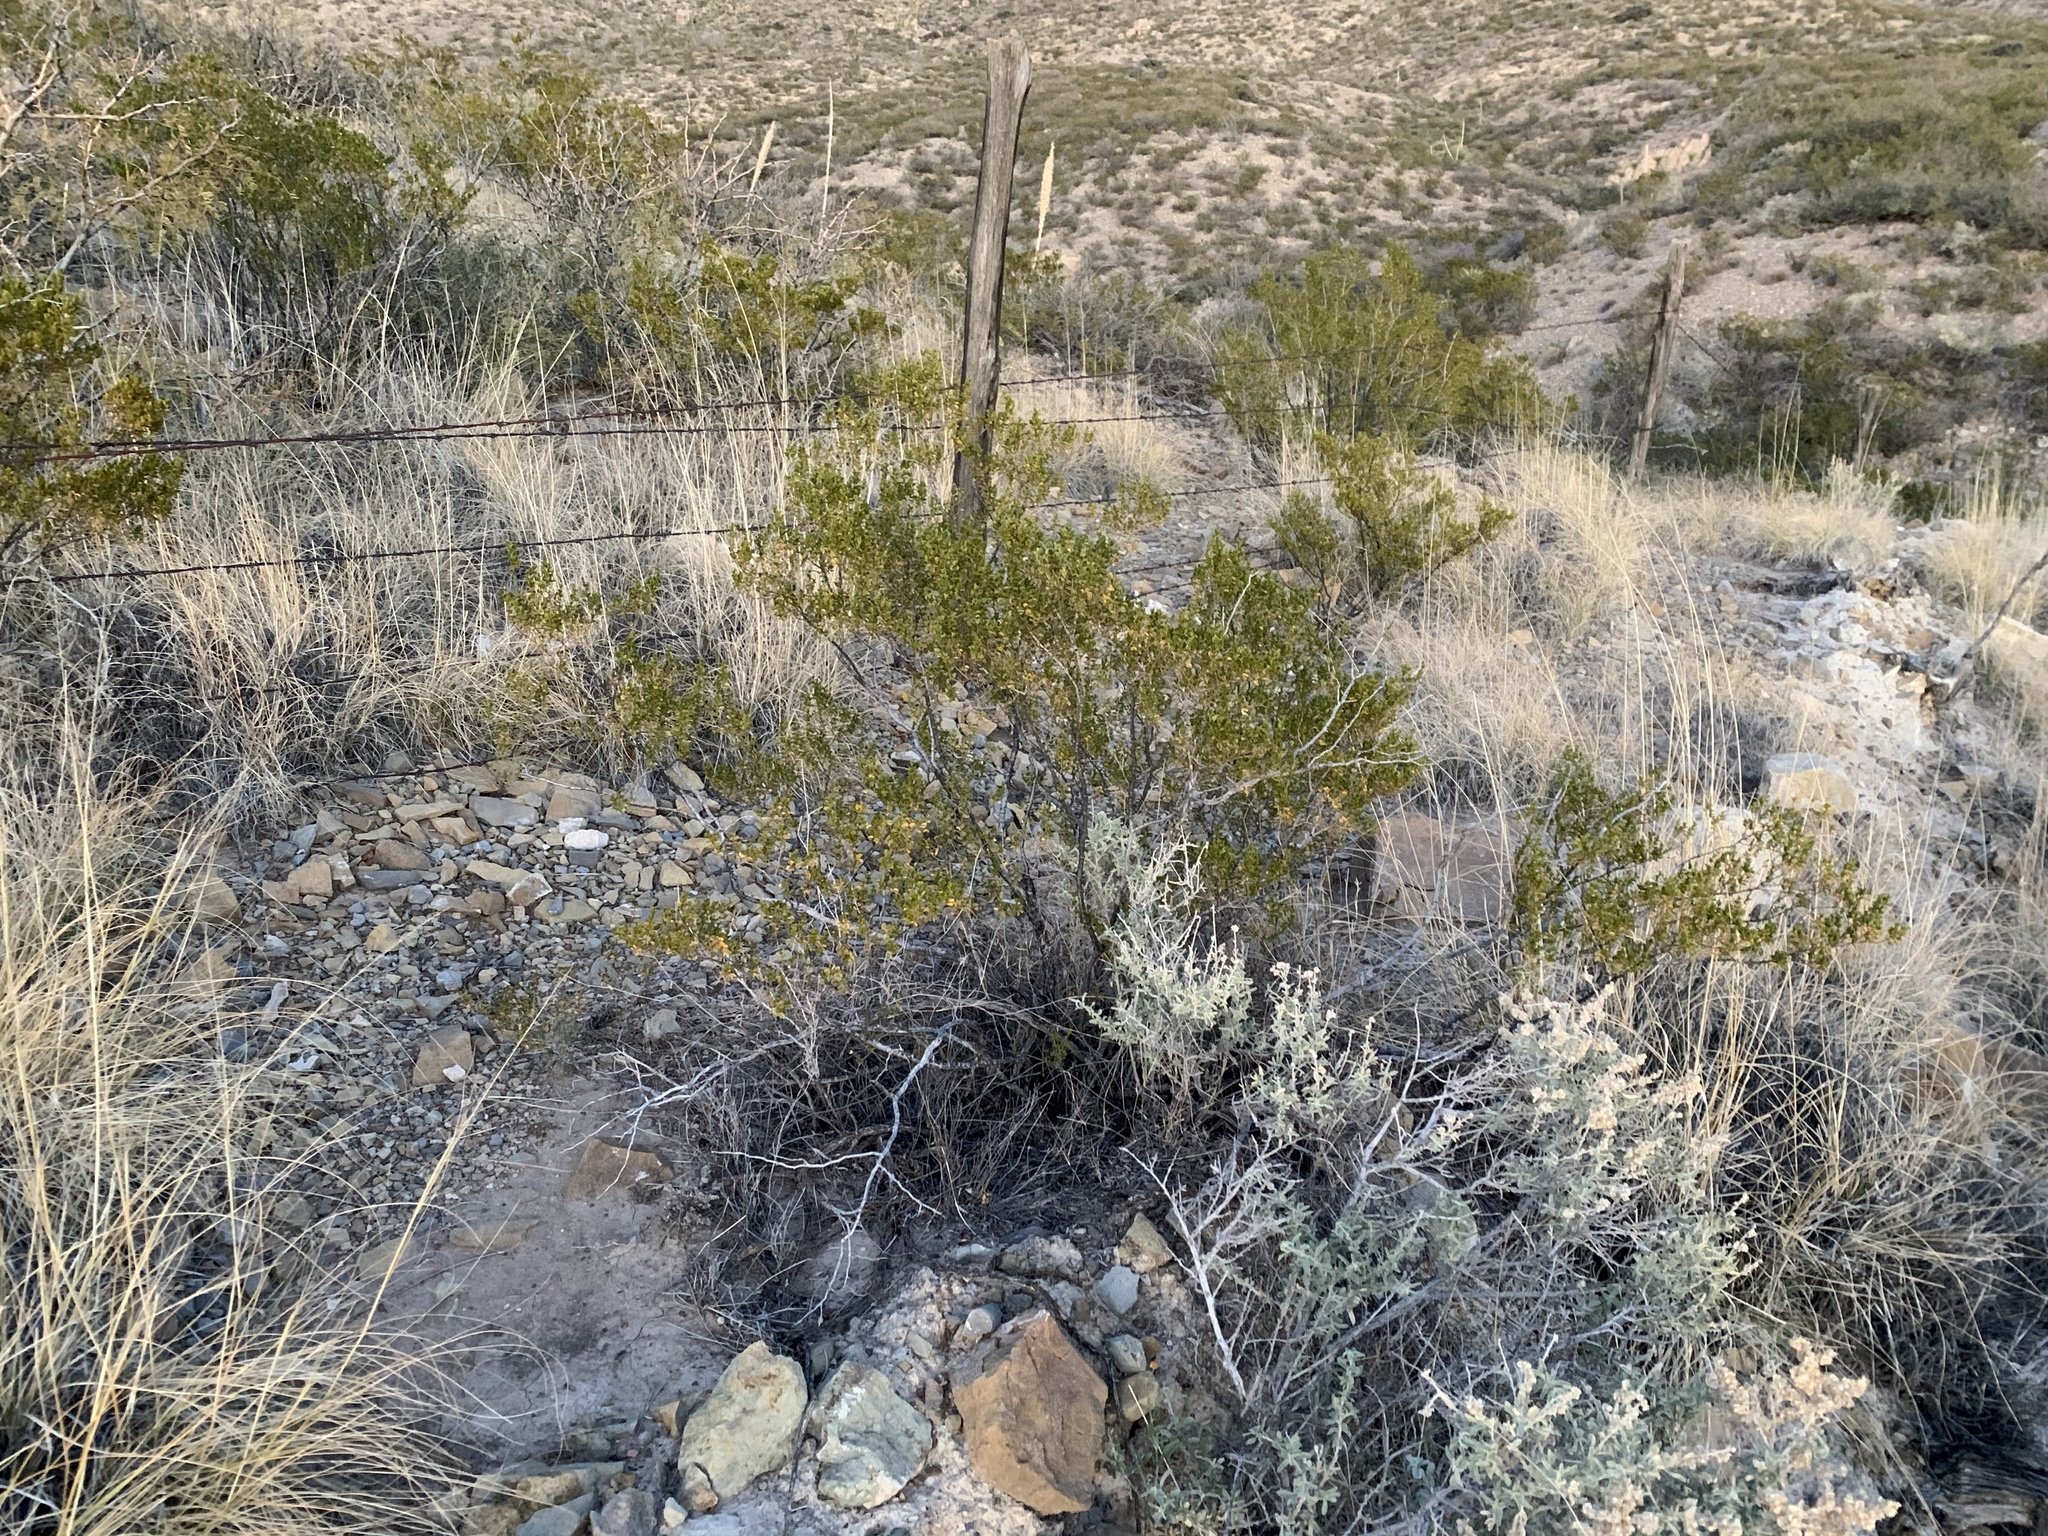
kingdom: Plantae
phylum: Tracheophyta
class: Magnoliopsida
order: Zygophyllales
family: Zygophyllaceae
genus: Larrea
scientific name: Larrea tridentata
